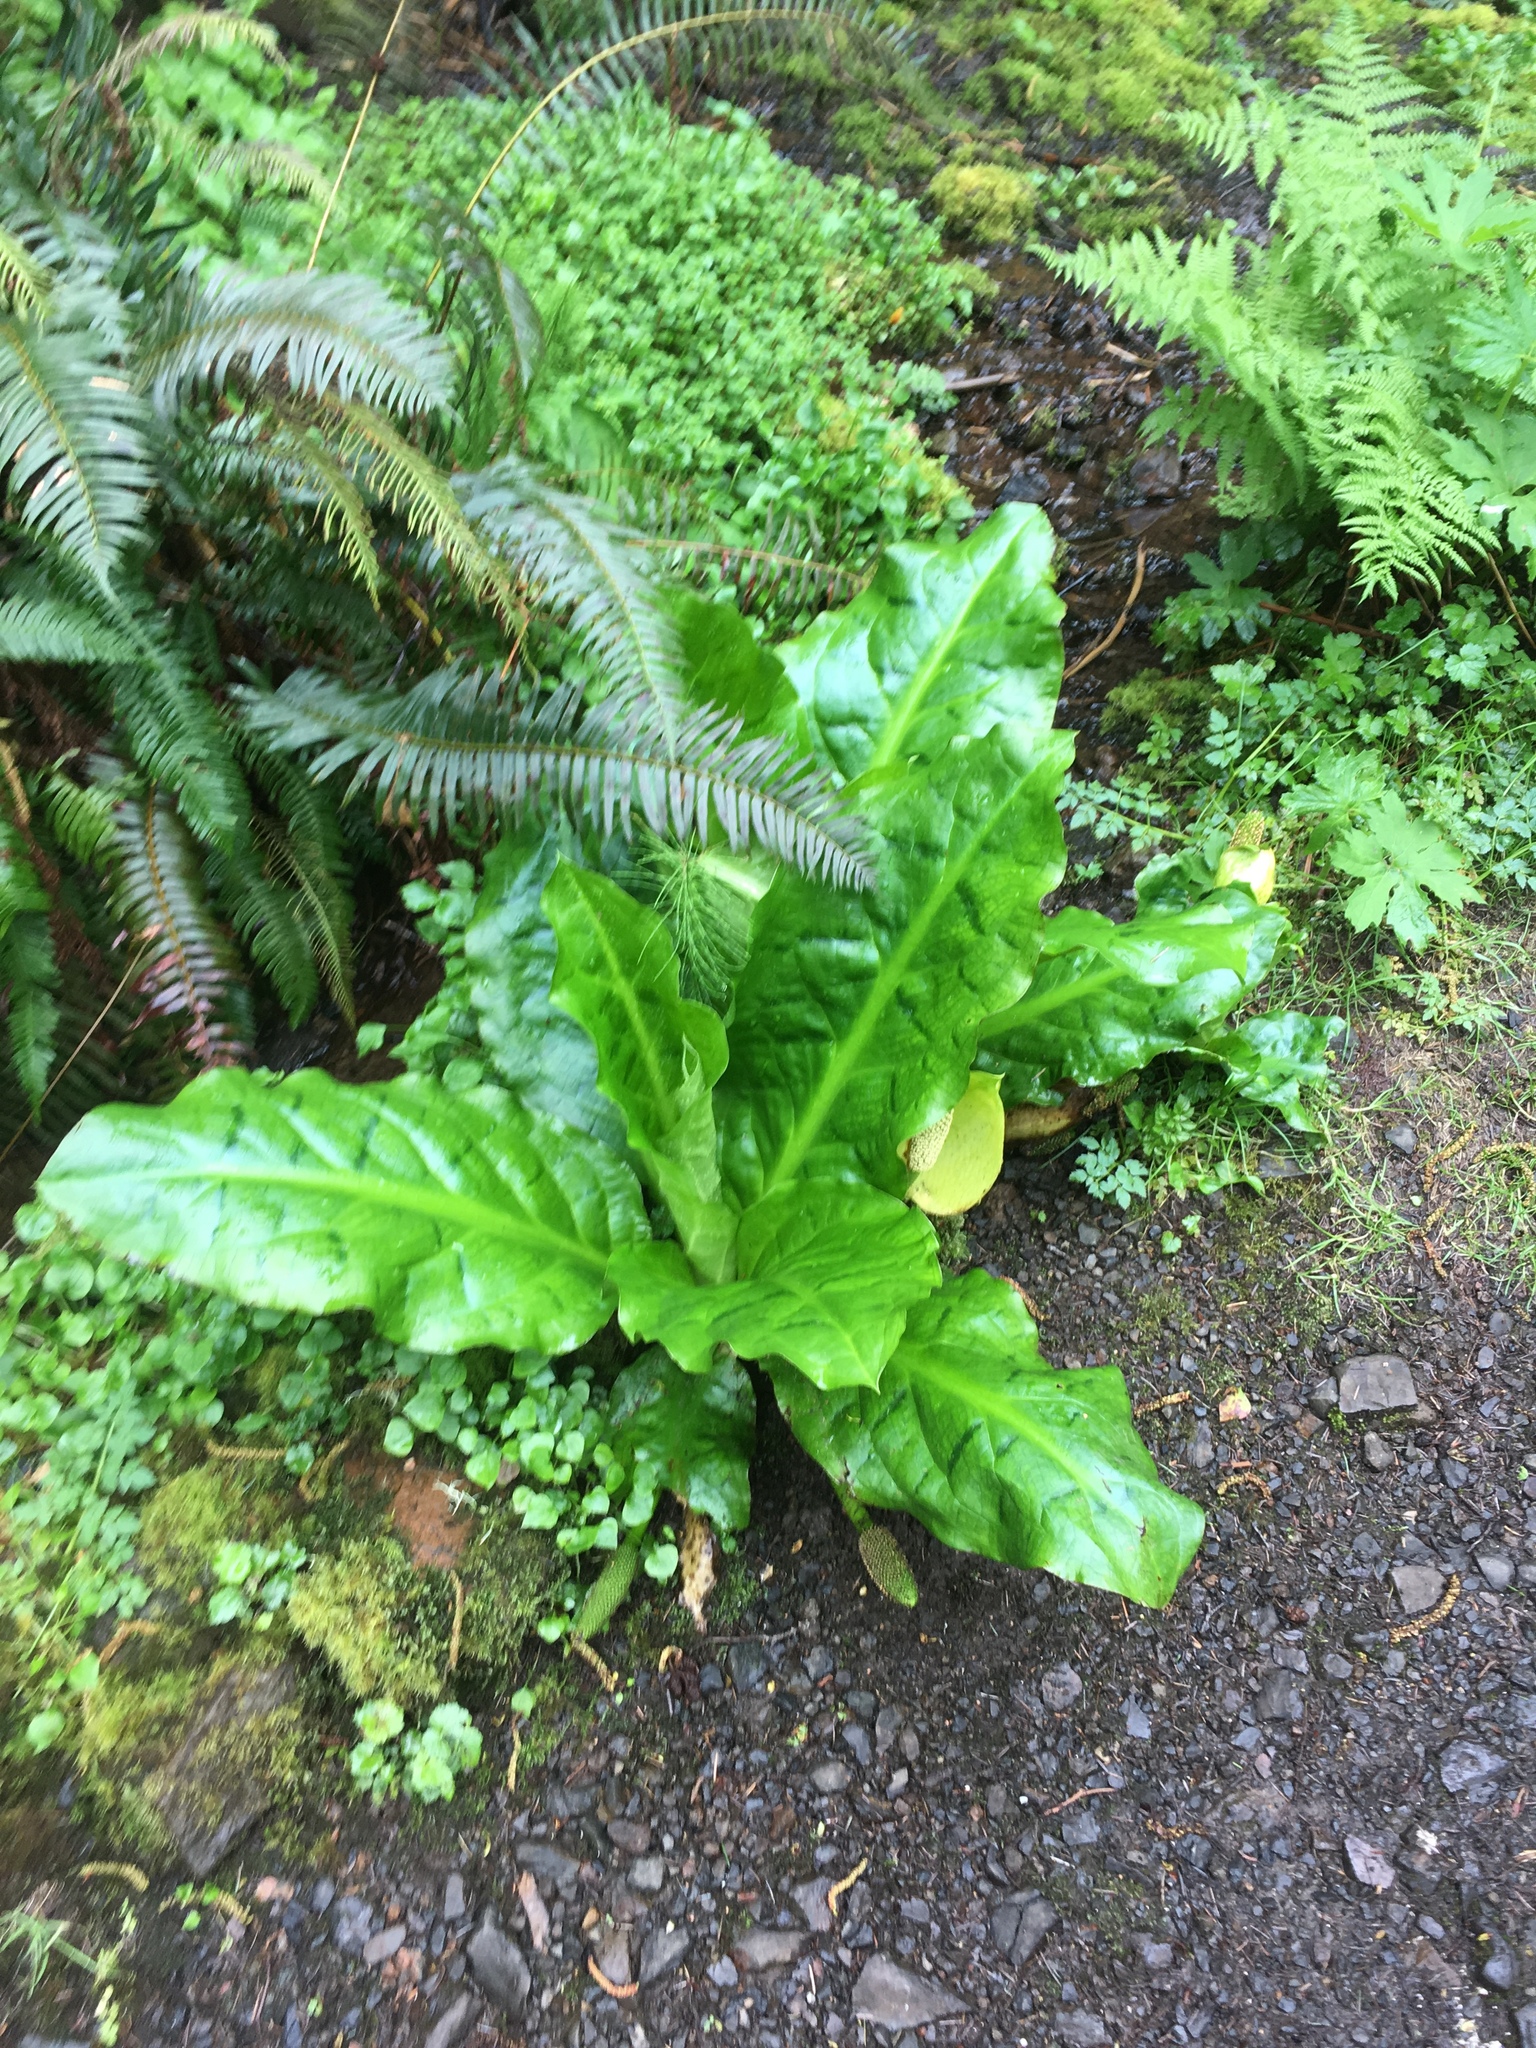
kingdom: Plantae
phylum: Tracheophyta
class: Liliopsida
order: Alismatales
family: Araceae
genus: Lysichiton
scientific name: Lysichiton americanus
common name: American skunk cabbage
